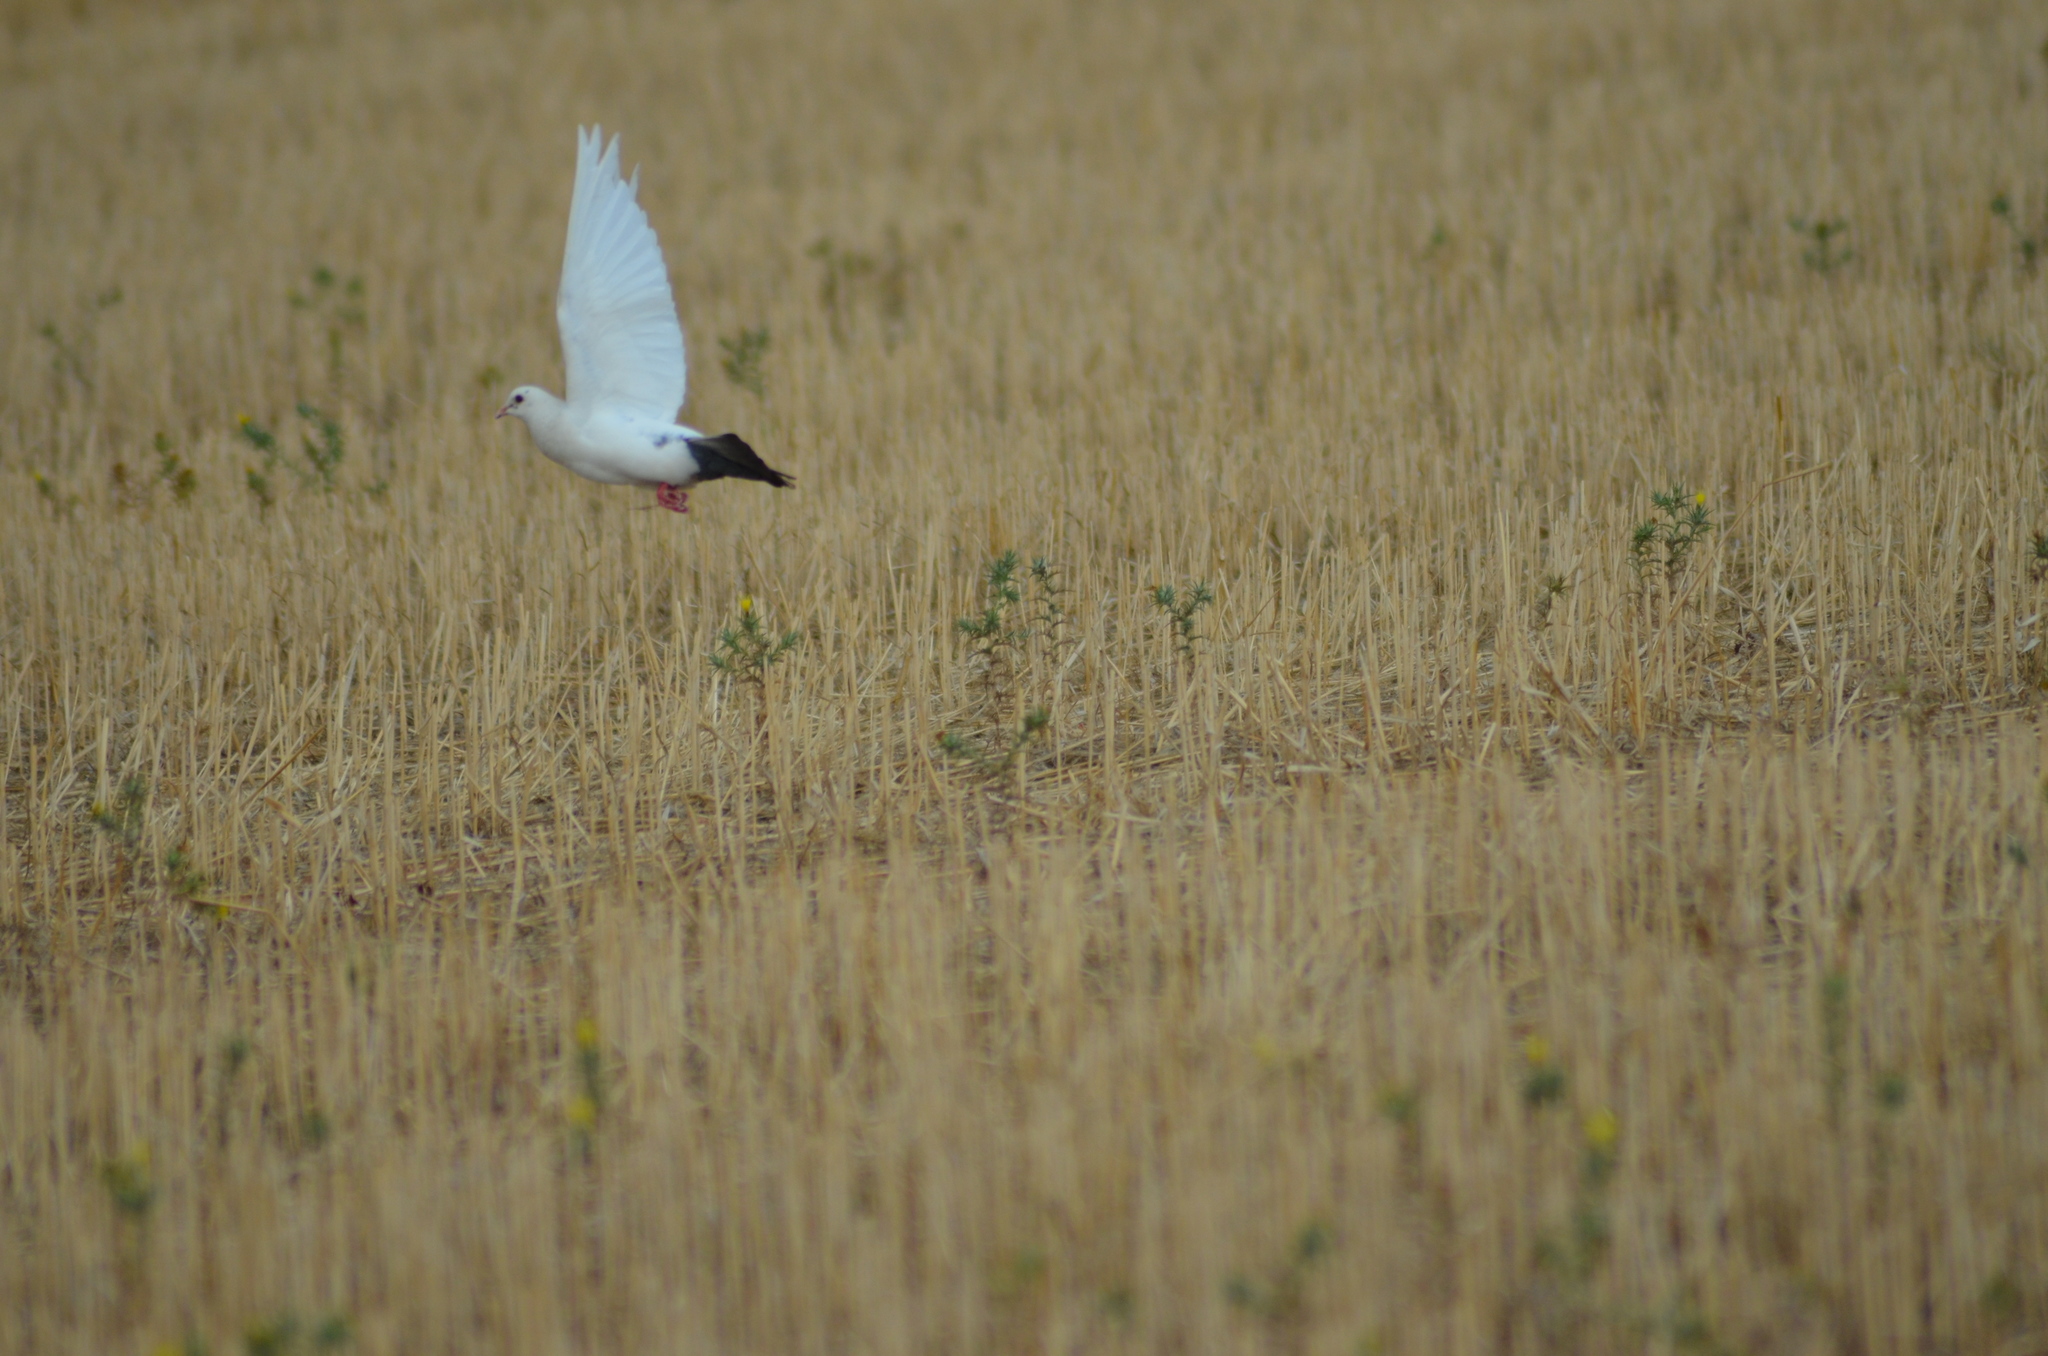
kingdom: Animalia
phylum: Chordata
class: Aves
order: Columbiformes
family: Columbidae
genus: Columba
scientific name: Columba livia
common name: Rock pigeon
